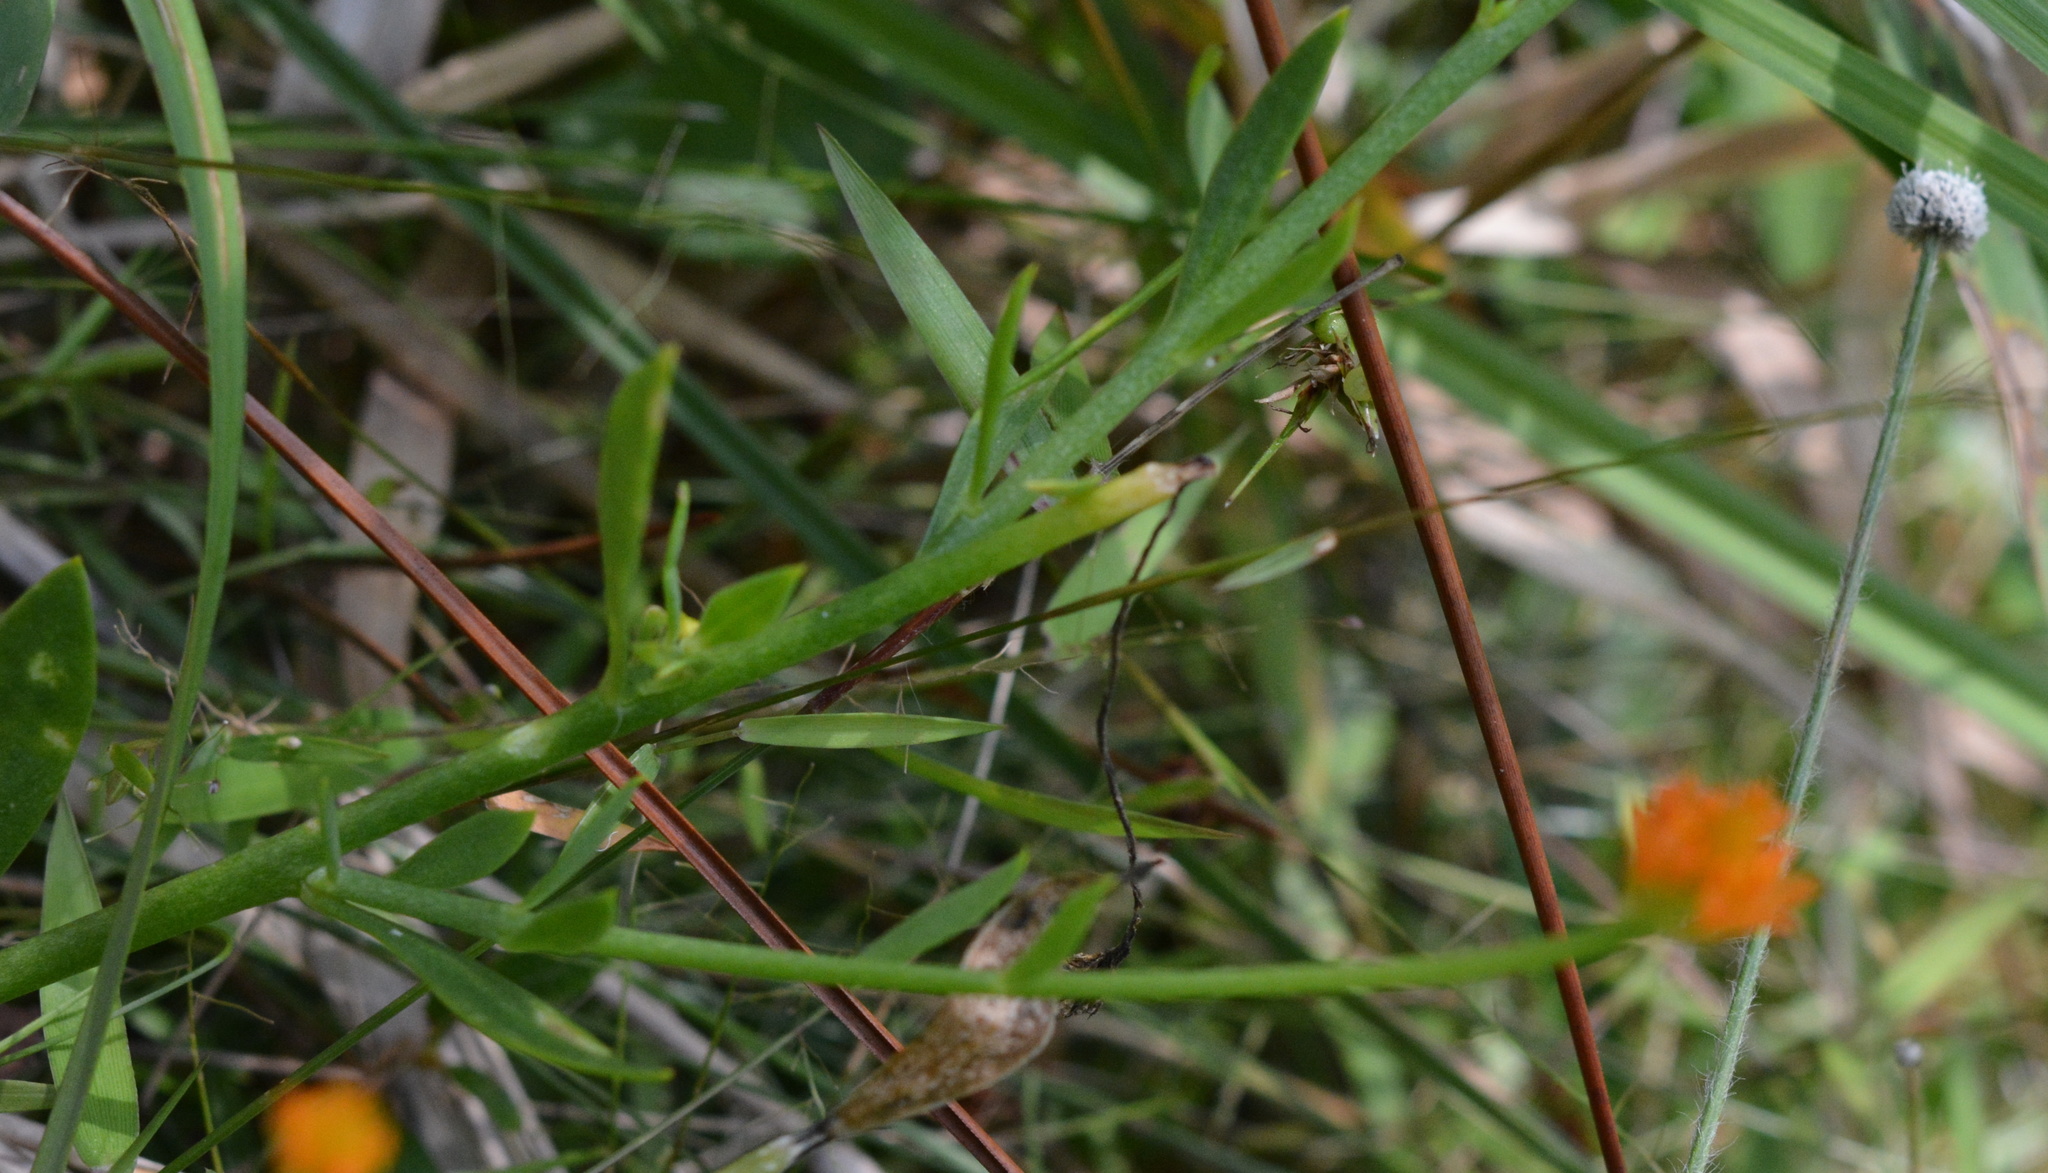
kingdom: Plantae
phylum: Tracheophyta
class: Magnoliopsida
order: Fabales
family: Polygalaceae
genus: Polygala
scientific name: Polygala lutea
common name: Orange milkwort
